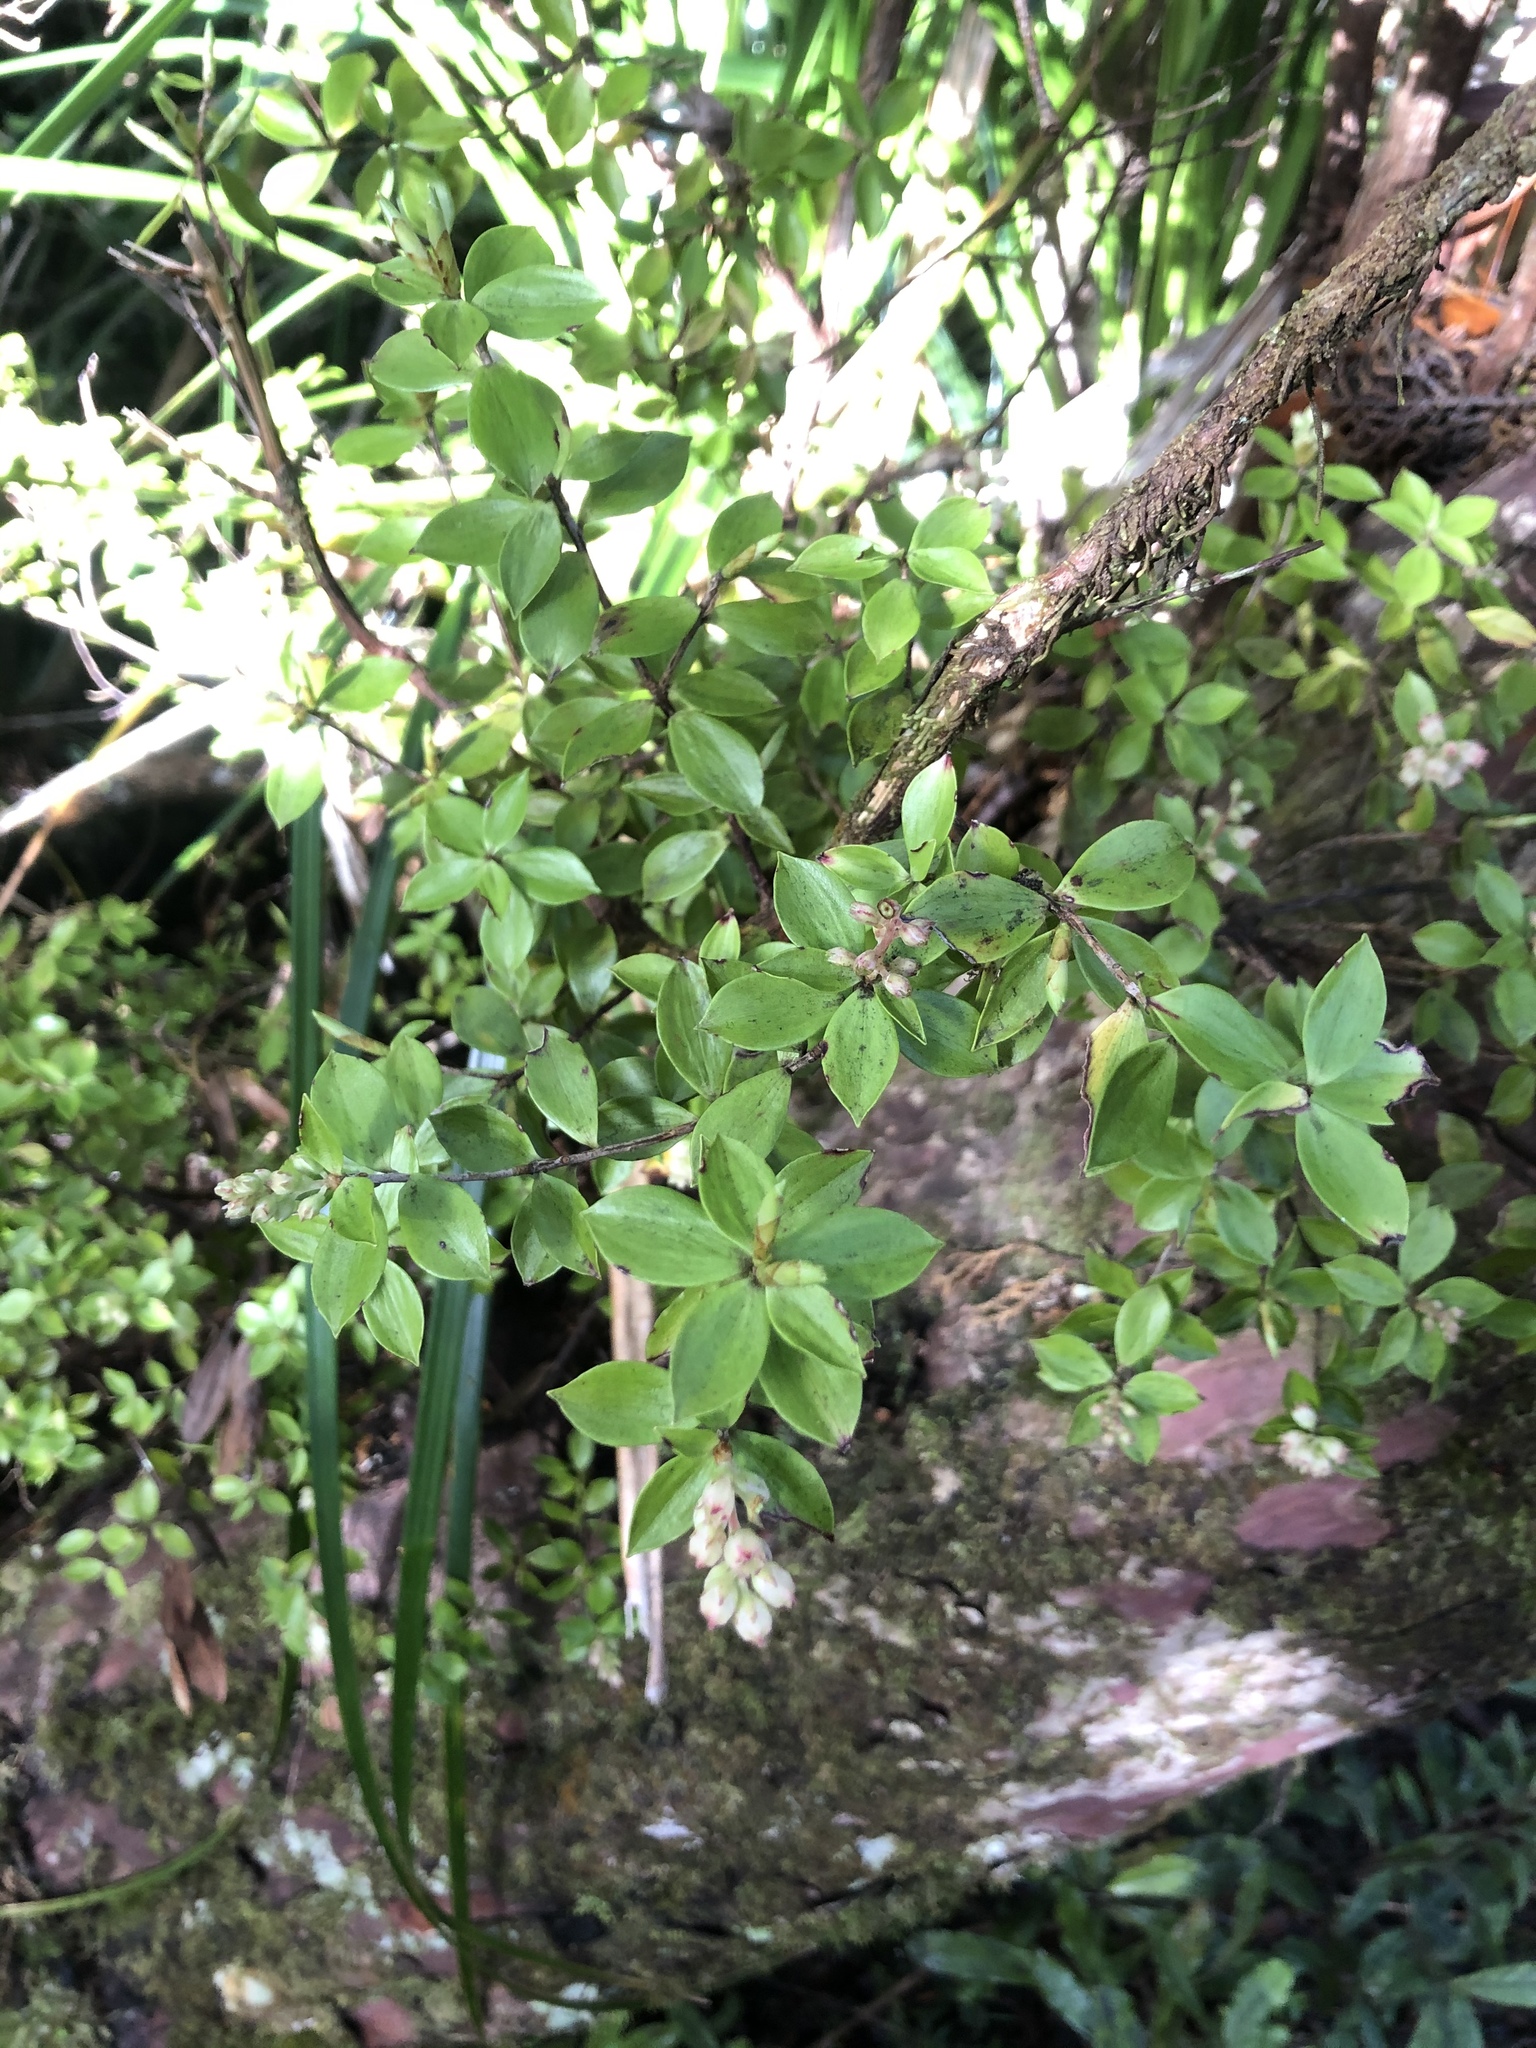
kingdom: Plantae
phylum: Tracheophyta
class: Magnoliopsida
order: Ericales
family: Ericaceae
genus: Archeria
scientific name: Archeria racemosa
